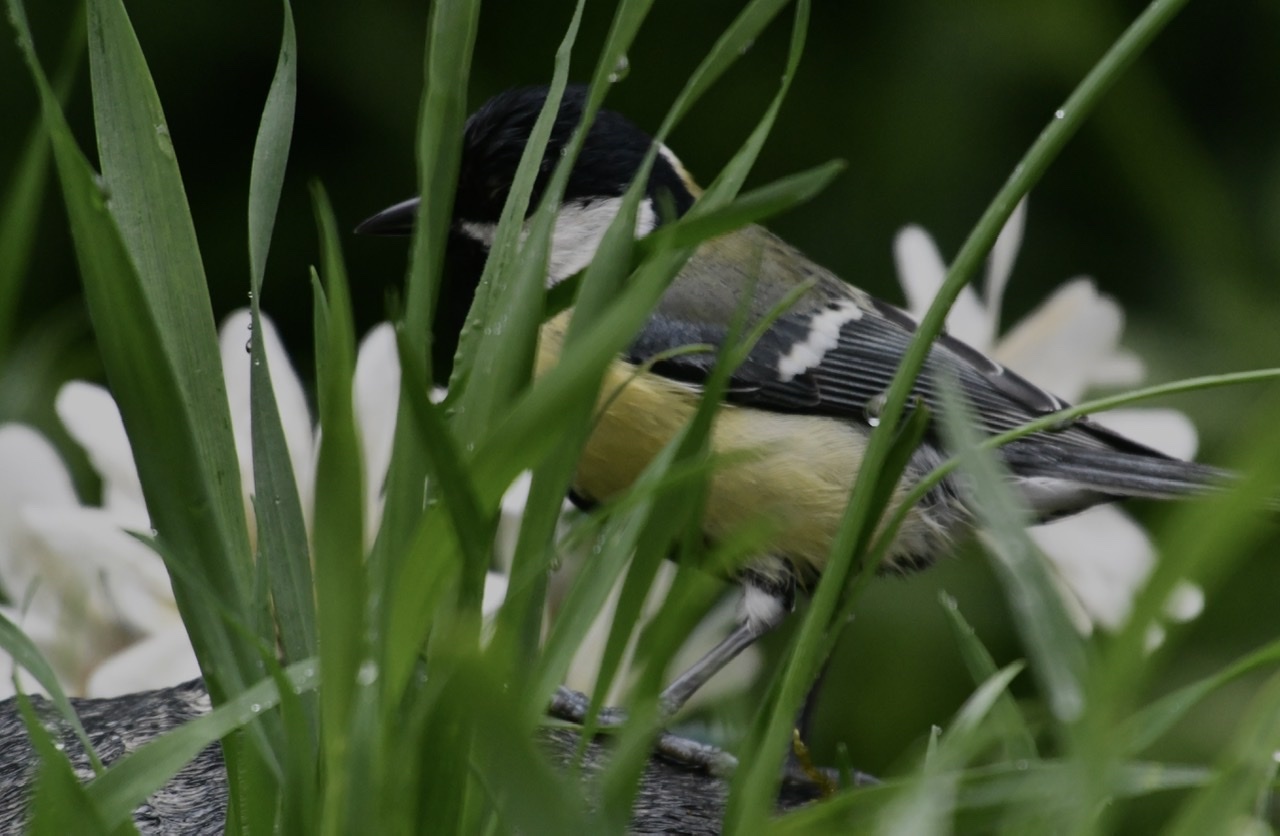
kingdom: Animalia
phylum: Chordata
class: Aves
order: Passeriformes
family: Paridae
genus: Parus
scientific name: Parus major
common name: Great tit
